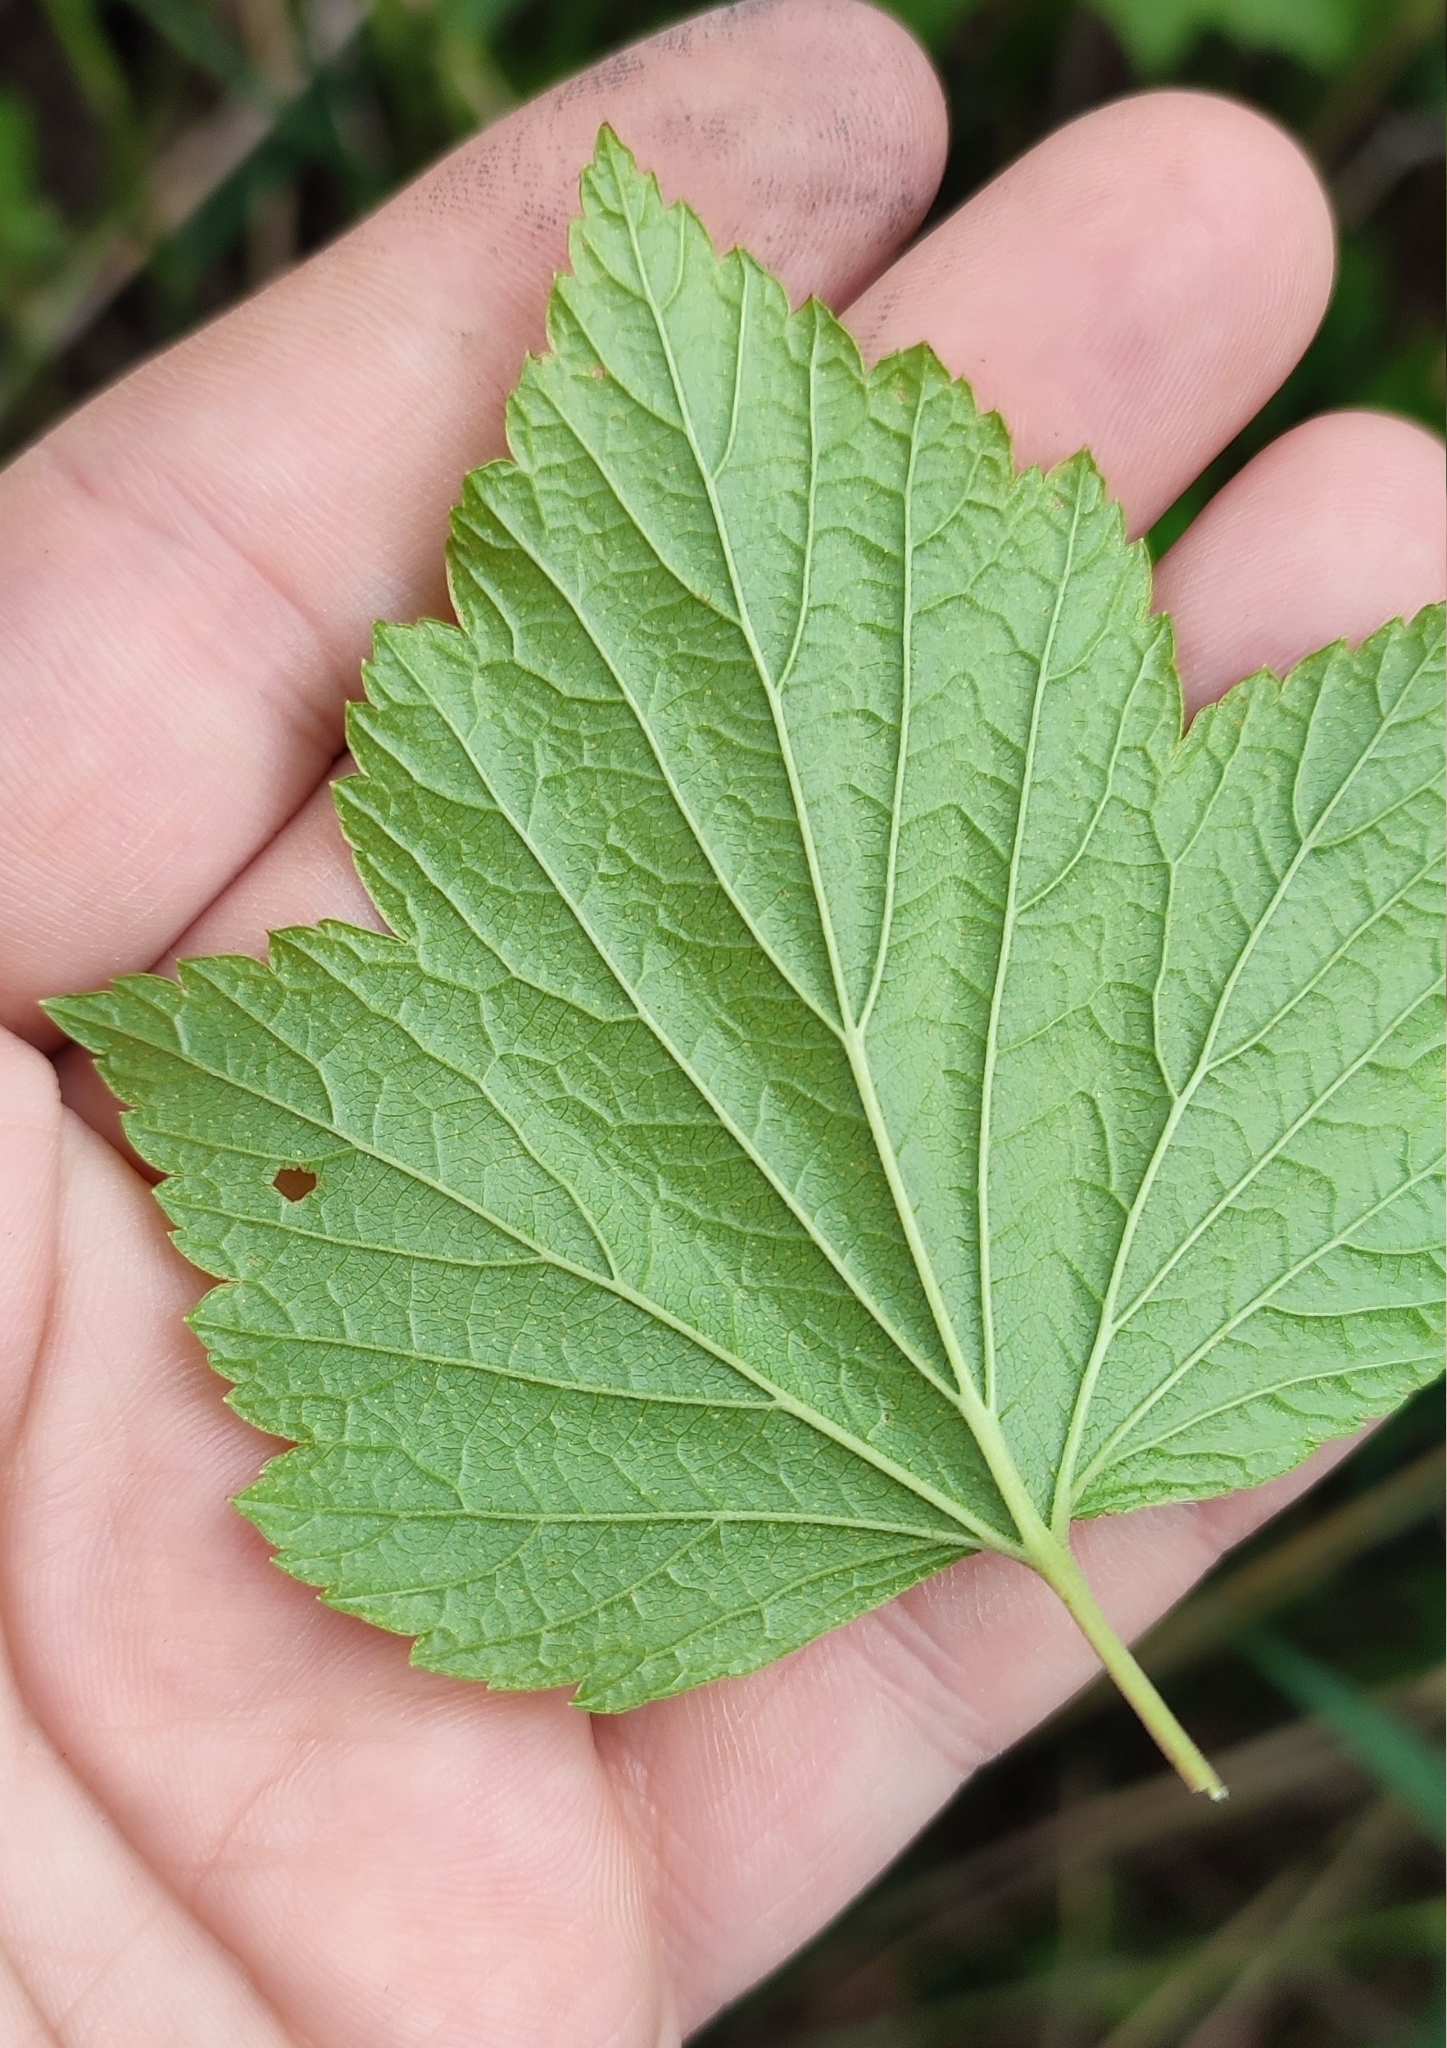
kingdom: Plantae
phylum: Tracheophyta
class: Magnoliopsida
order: Saxifragales
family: Grossulariaceae
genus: Ribes
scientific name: Ribes nigrum
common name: Black currant
